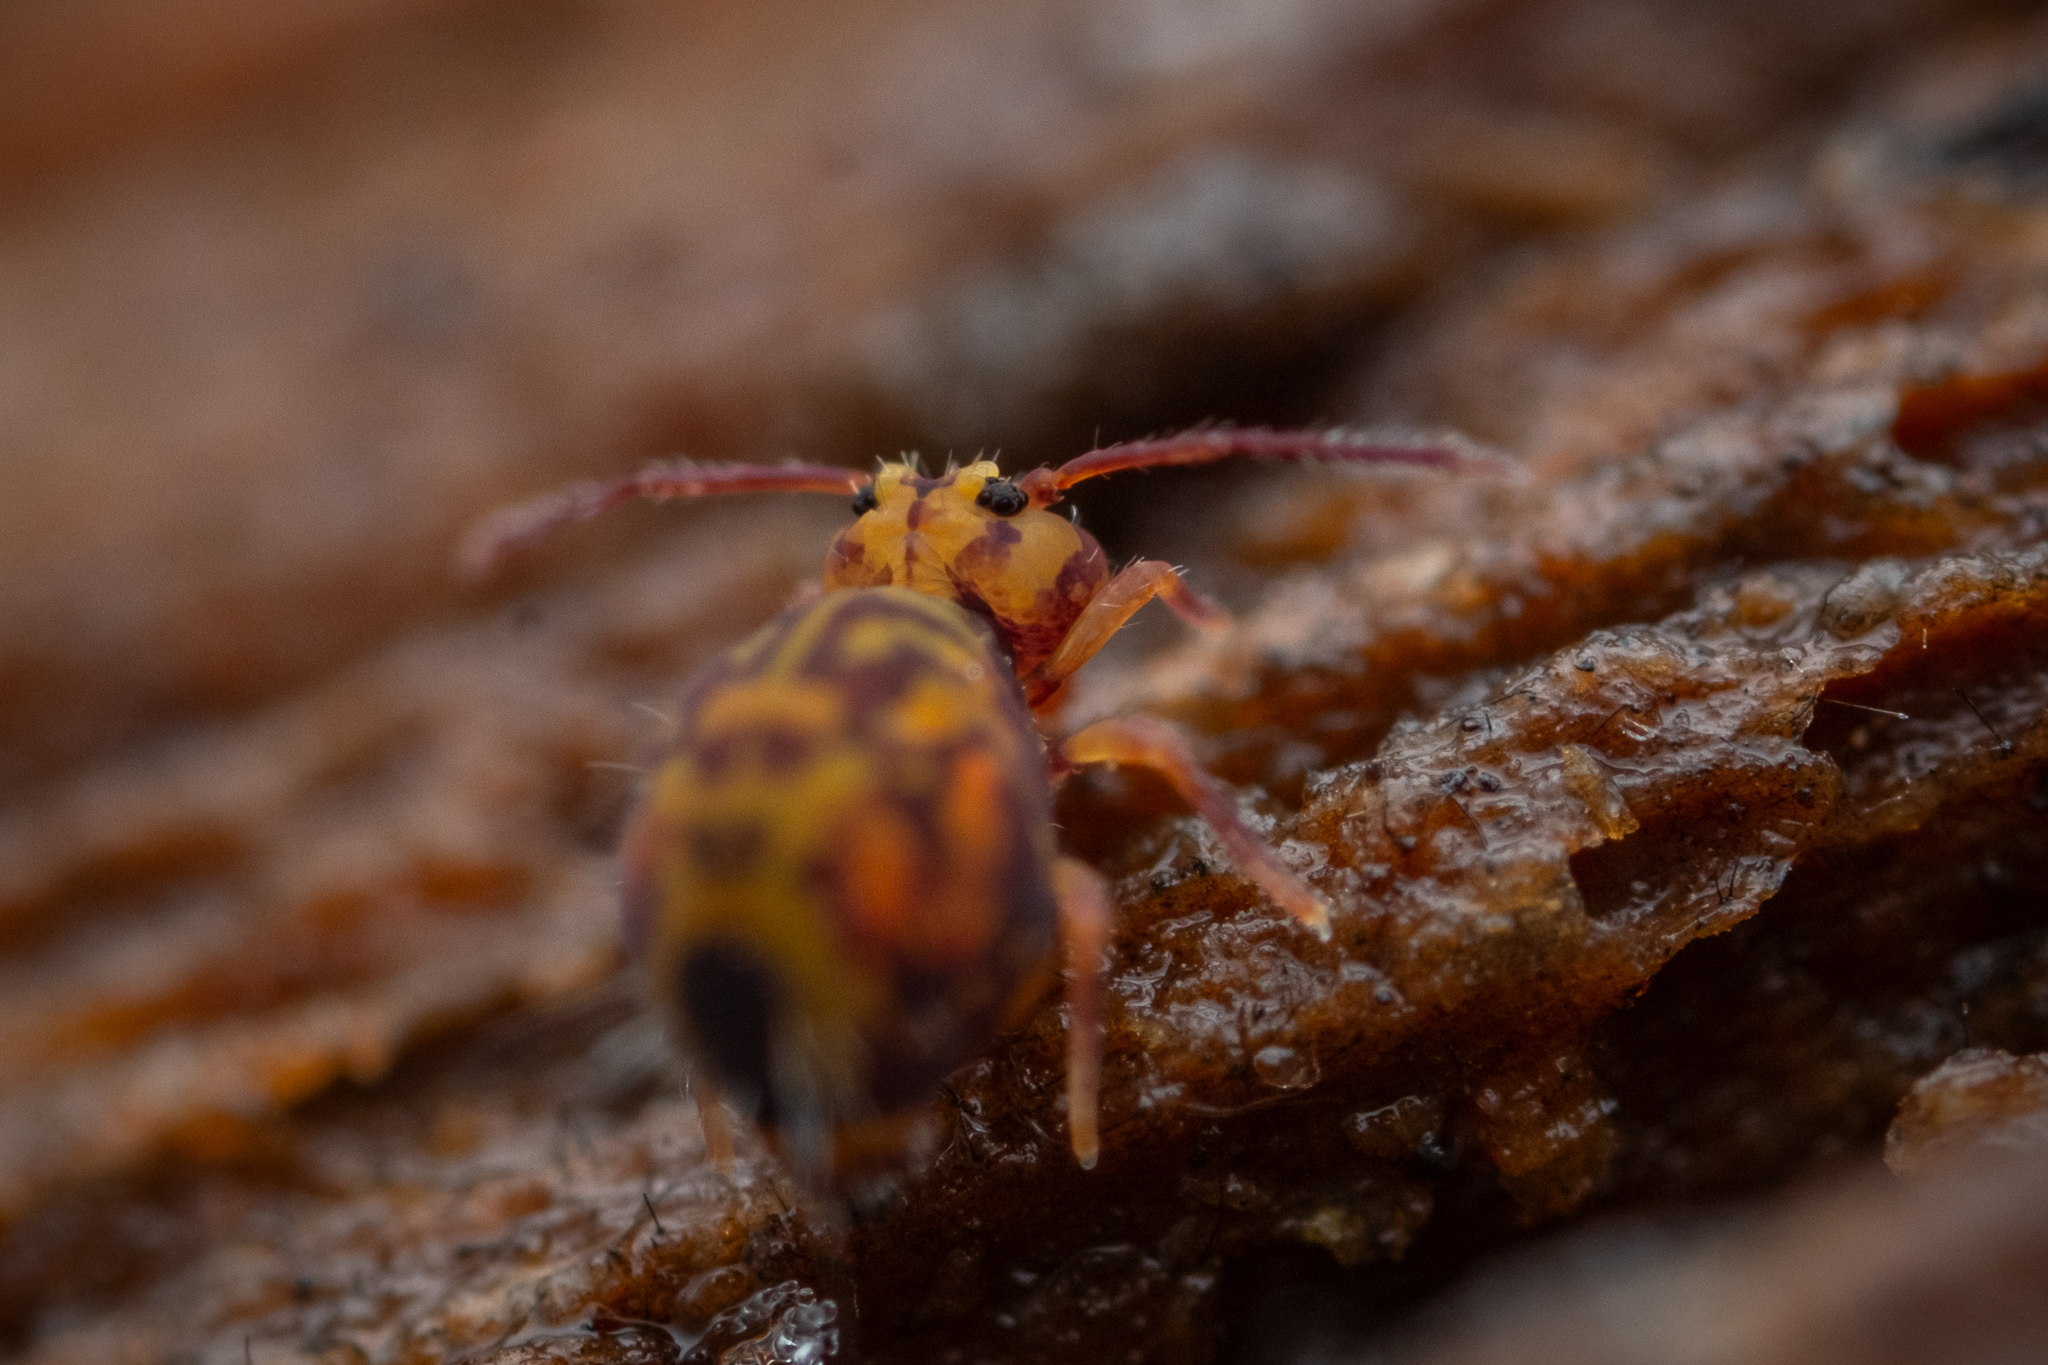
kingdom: Animalia
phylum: Arthropoda
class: Collembola
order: Symphypleona
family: Dicyrtomidae
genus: Dicyrtomina
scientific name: Dicyrtomina ornata
